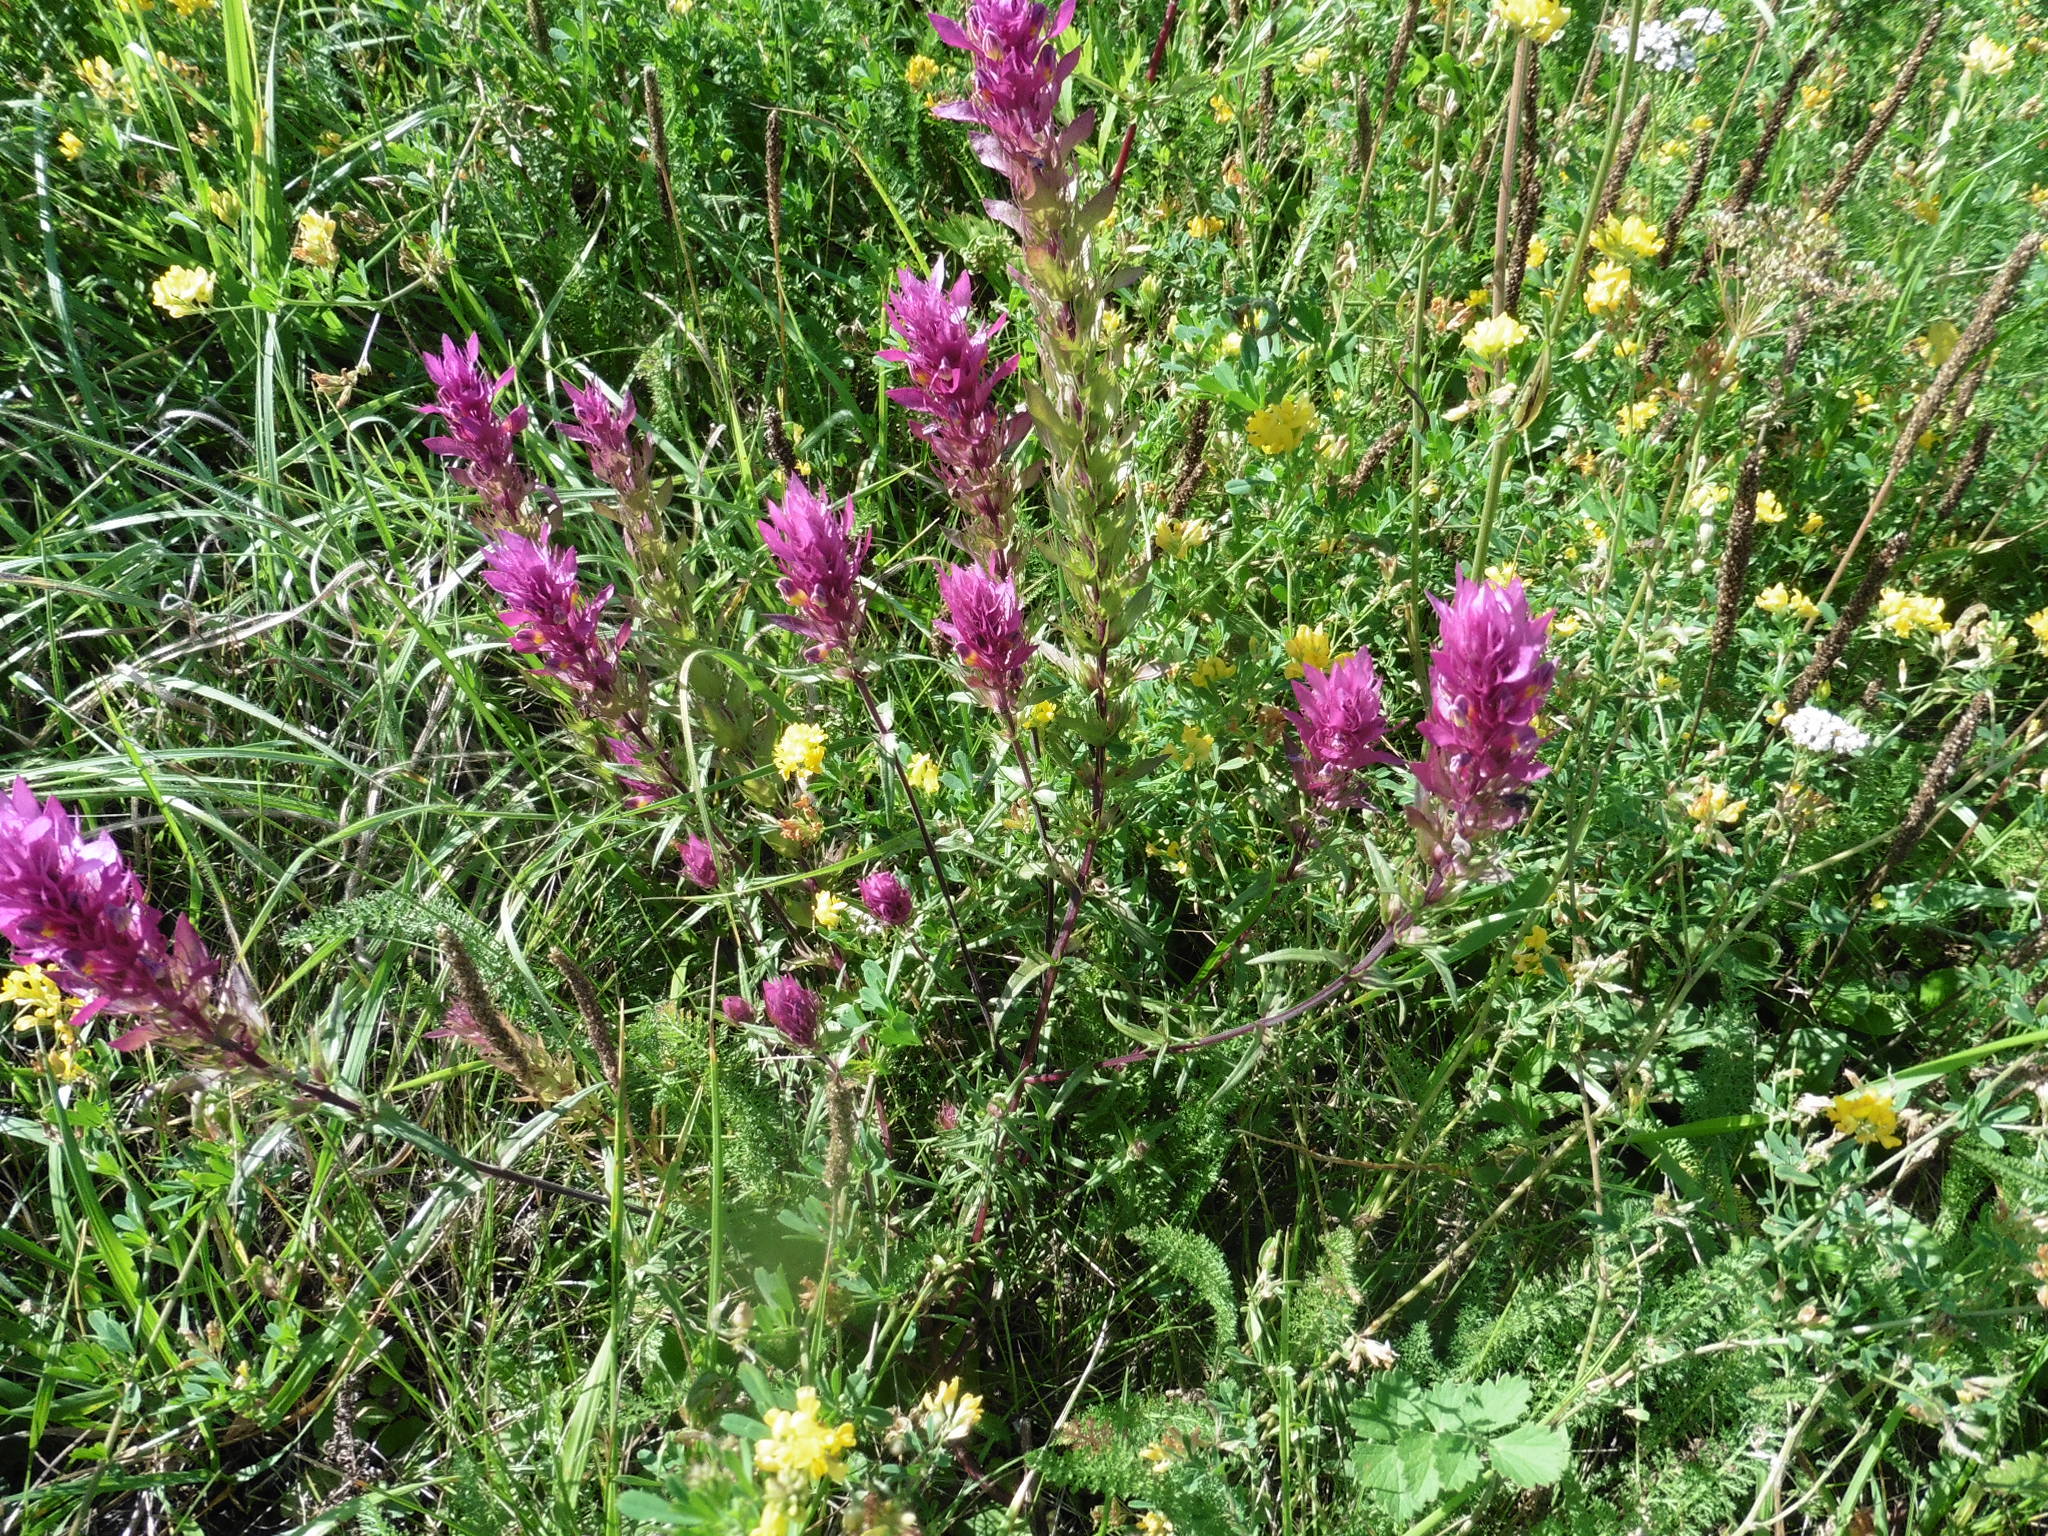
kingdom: Plantae
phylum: Tracheophyta
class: Magnoliopsida
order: Lamiales
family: Orobanchaceae
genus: Melampyrum
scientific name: Melampyrum arvense
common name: Field cow-wheat
